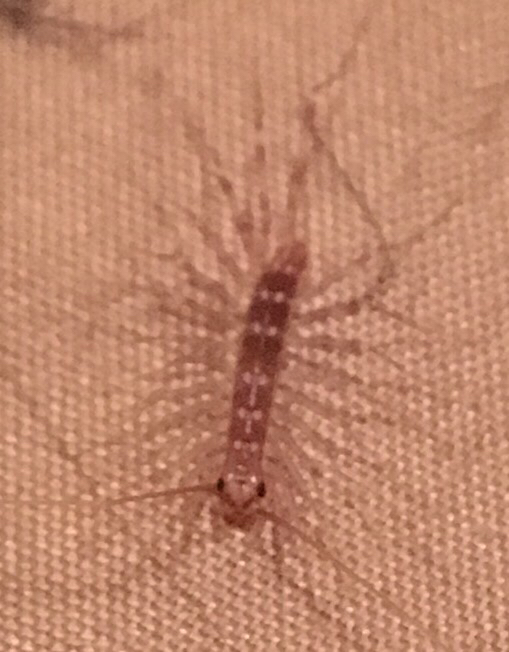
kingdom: Animalia
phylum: Arthropoda
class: Chilopoda
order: Scutigeromorpha
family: Scutigeridae
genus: Scutigera
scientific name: Scutigera coleoptrata
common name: House centipede
